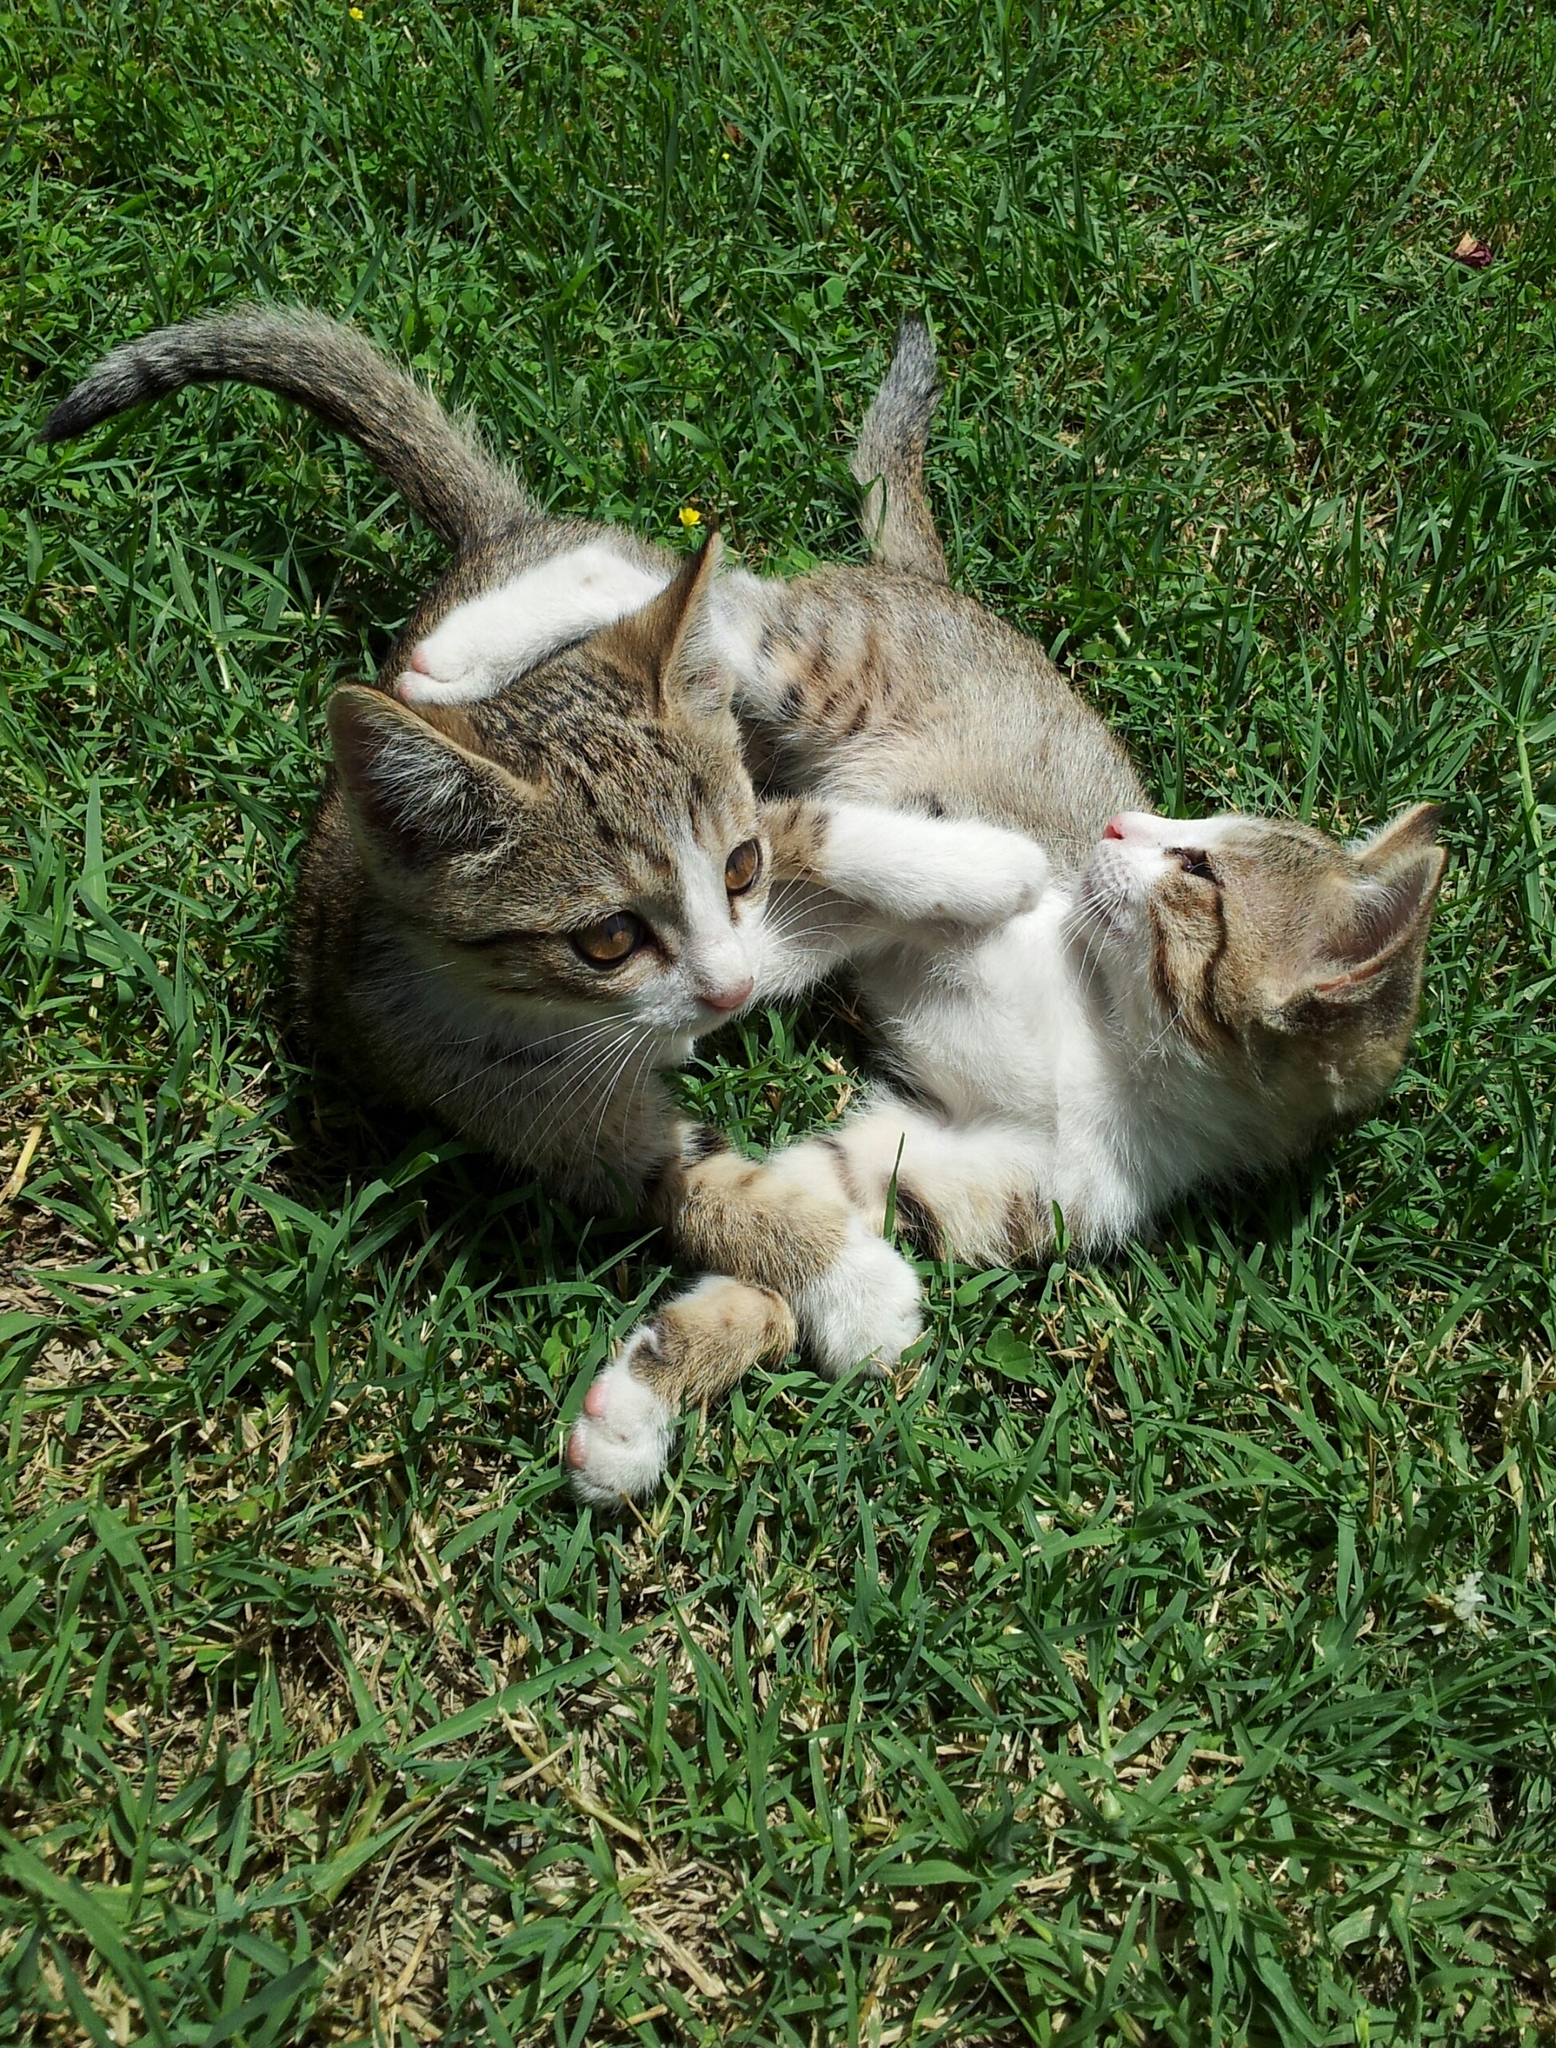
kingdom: Animalia
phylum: Chordata
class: Mammalia
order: Carnivora
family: Felidae
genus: Felis
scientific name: Felis catus
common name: Domestic cat
